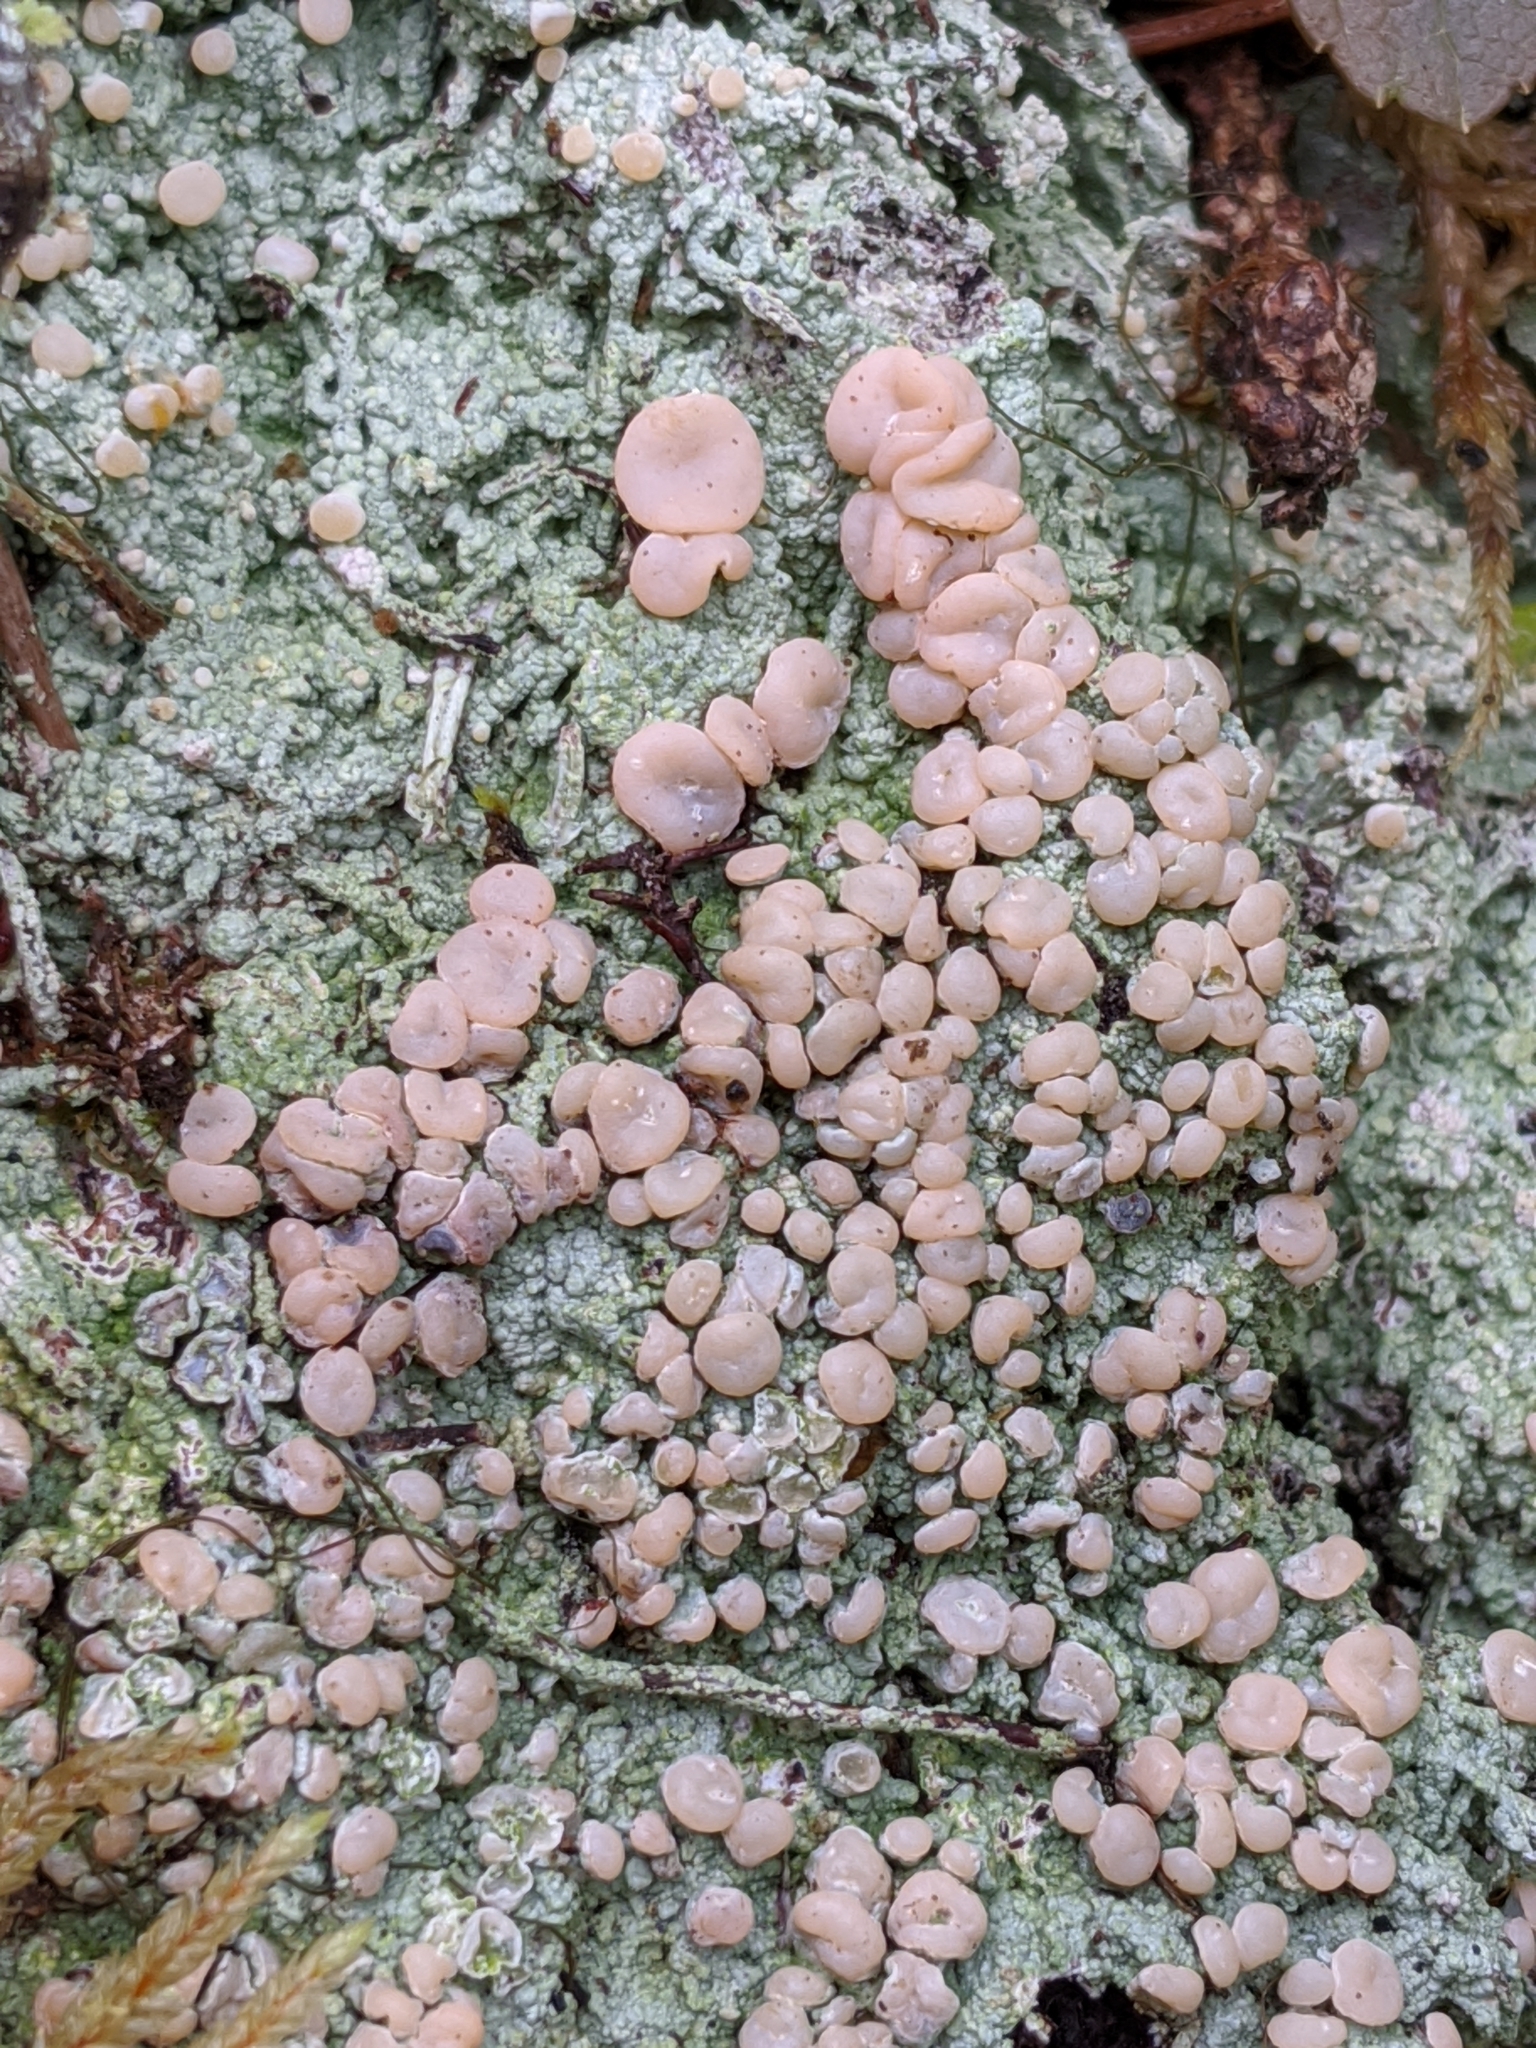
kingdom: Fungi
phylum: Ascomycota
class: Lecanoromycetes
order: Pertusariales
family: Icmadophilaceae
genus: Icmadophila
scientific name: Icmadophila ericetorum
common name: Candy lichen
